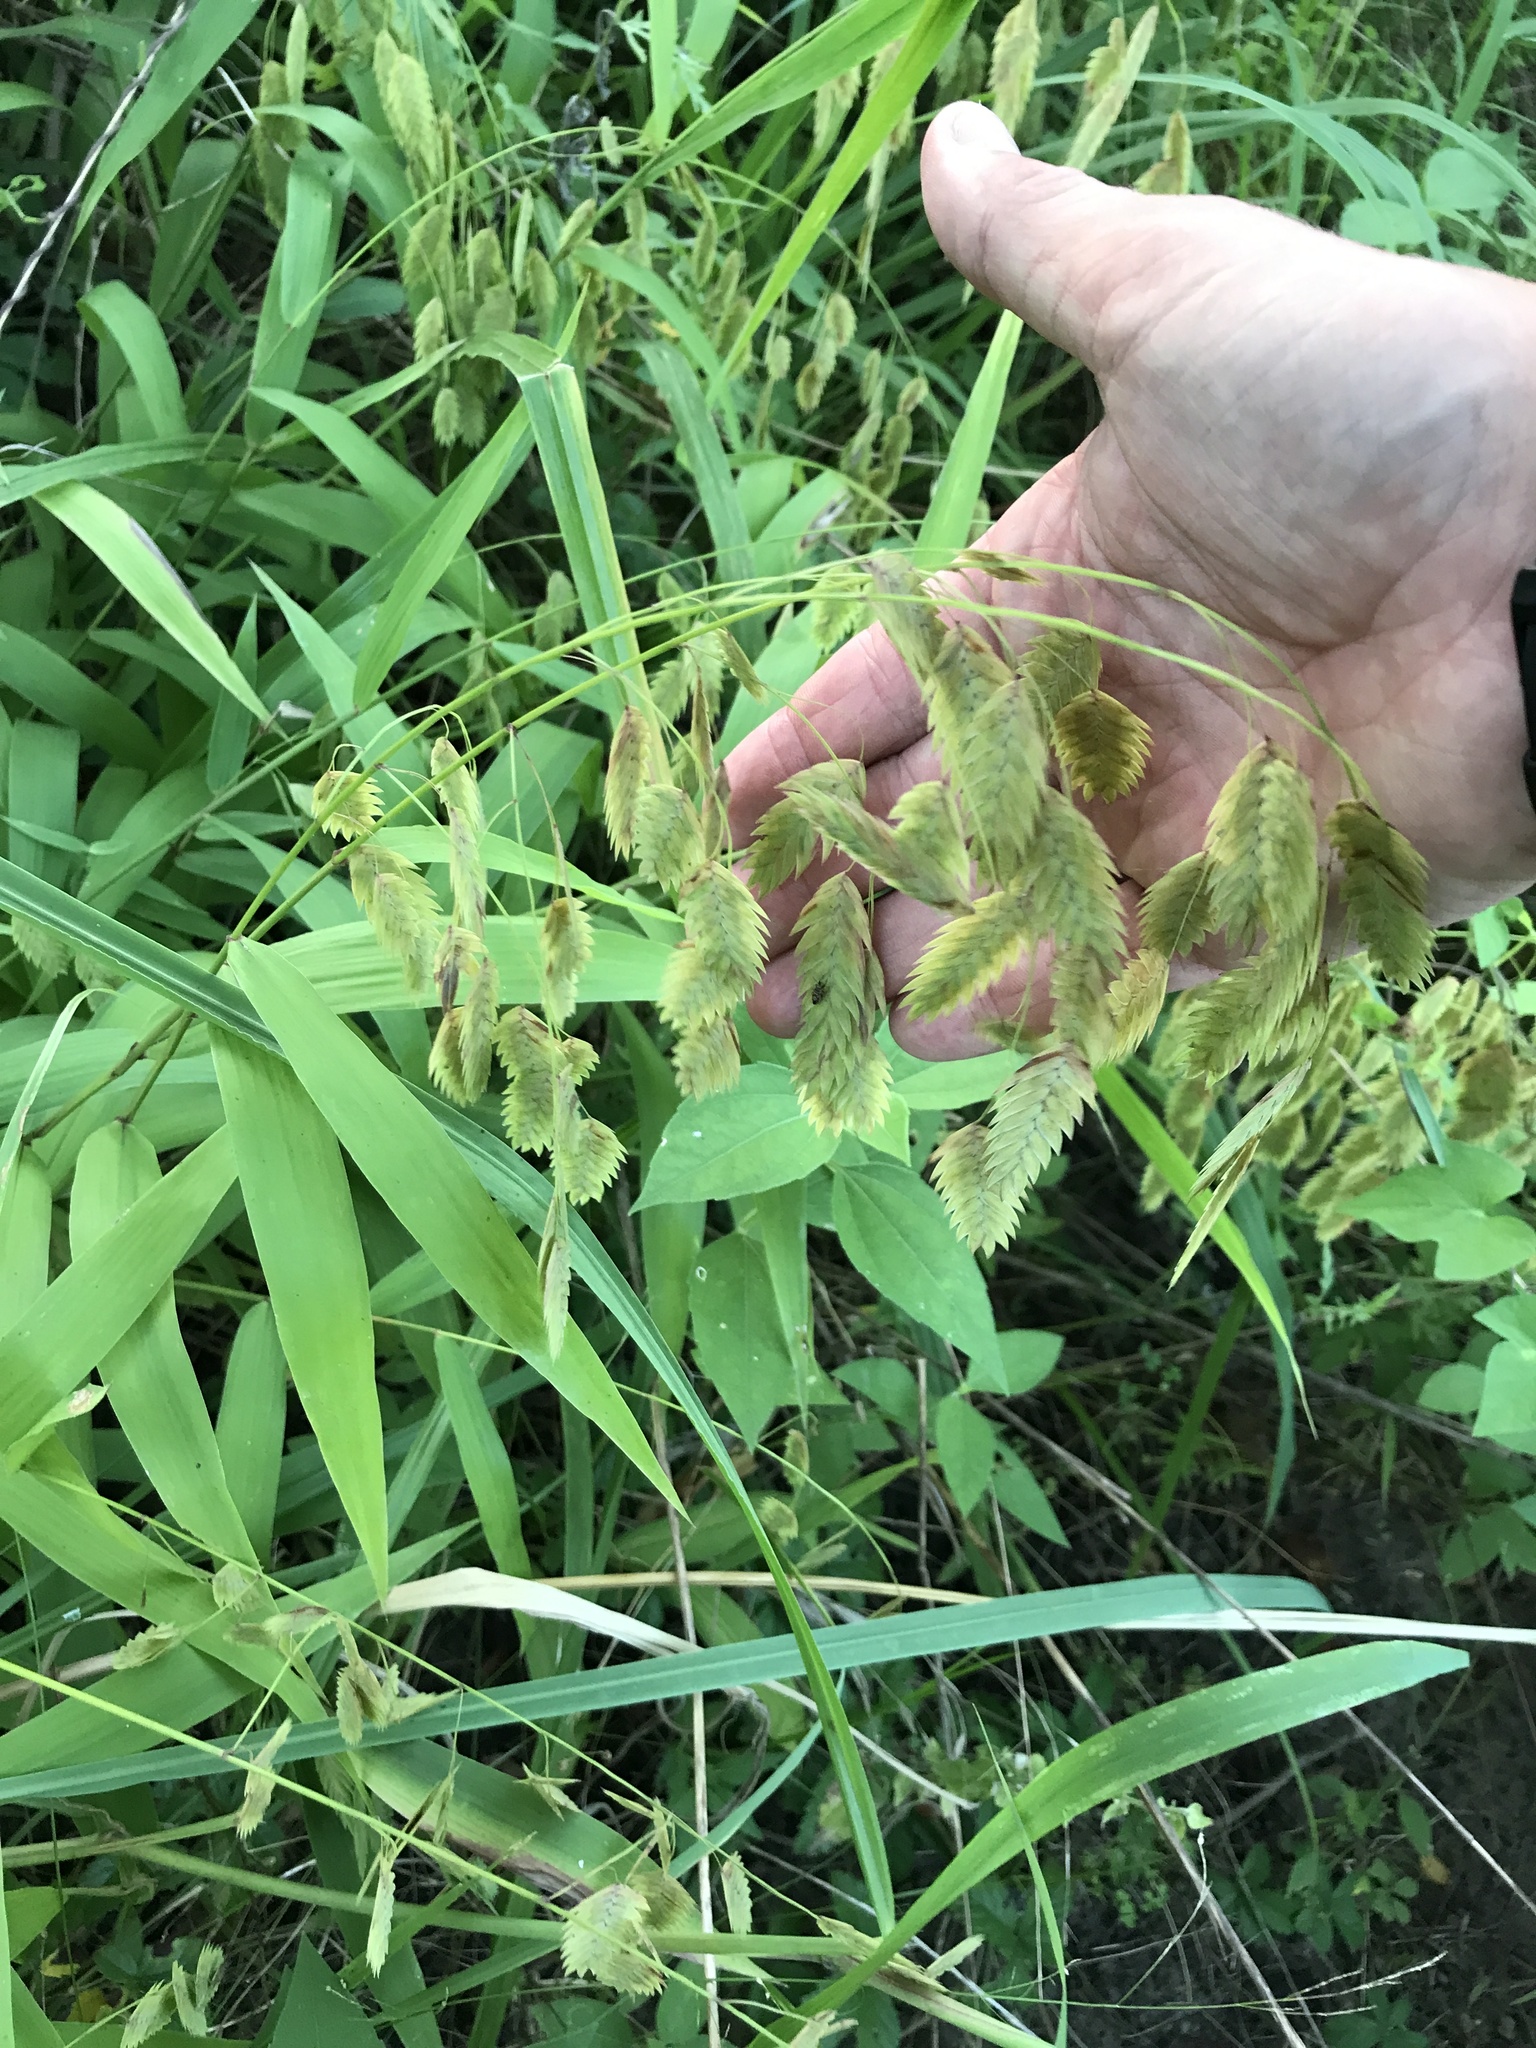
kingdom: Plantae
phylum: Tracheophyta
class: Liliopsida
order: Poales
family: Poaceae
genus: Chasmanthium
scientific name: Chasmanthium latifolium
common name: Broad-leaved chasmanthium
